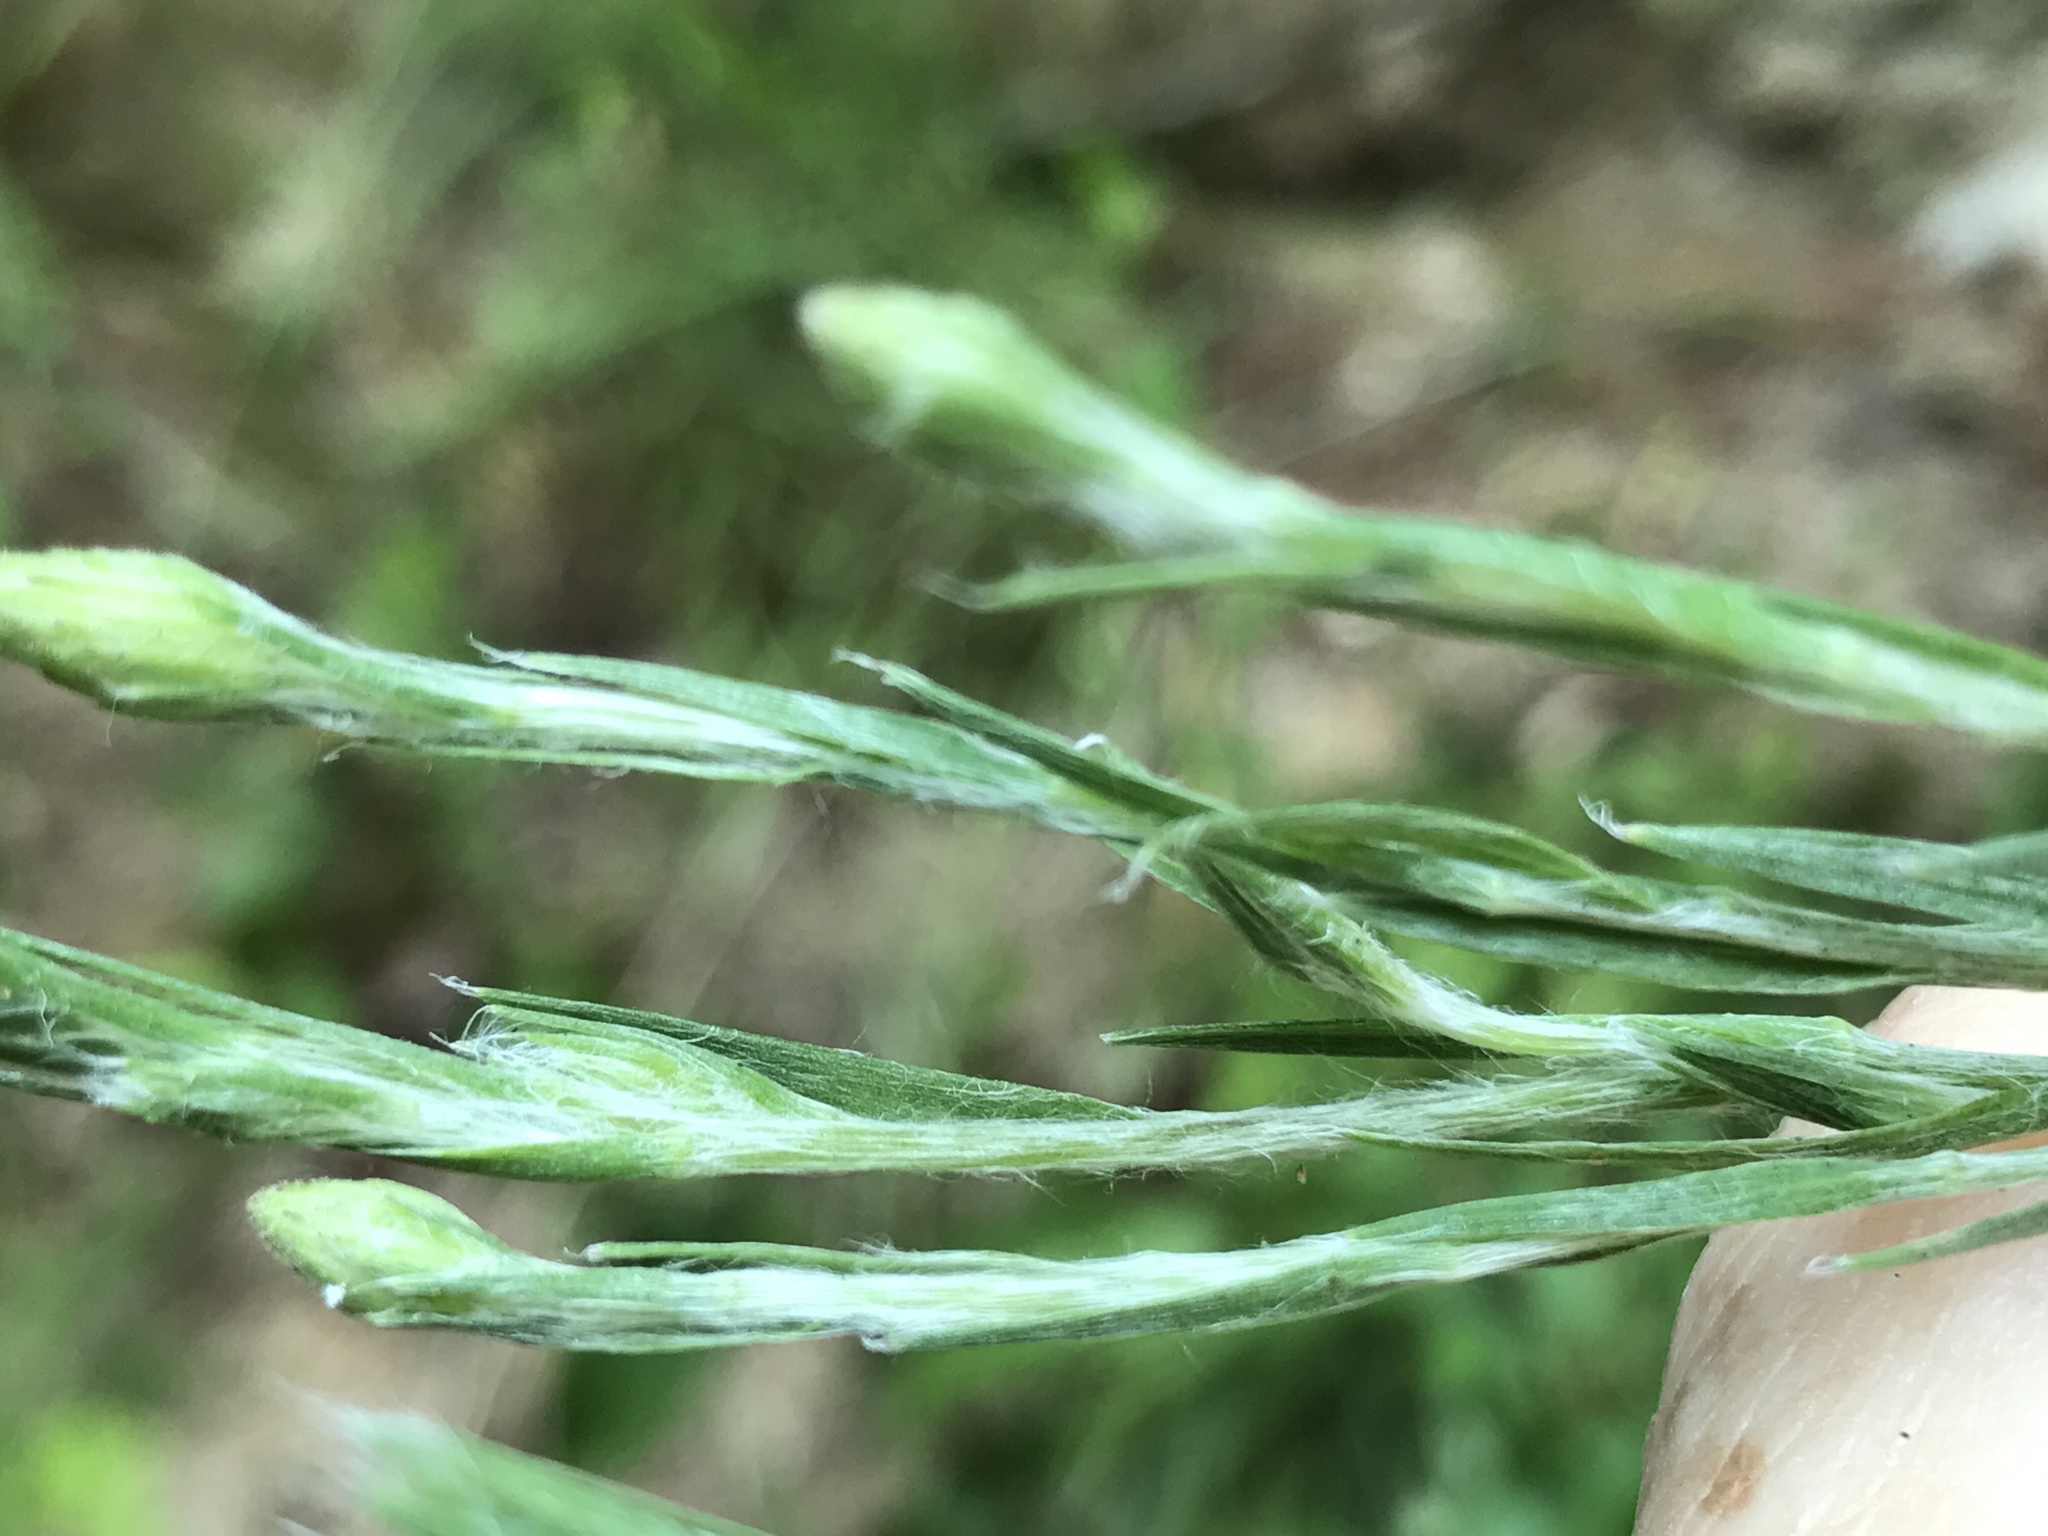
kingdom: Plantae
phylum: Tracheophyta
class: Magnoliopsida
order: Asterales
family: Asteraceae
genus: Pityopsis
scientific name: Pityopsis latifolia
